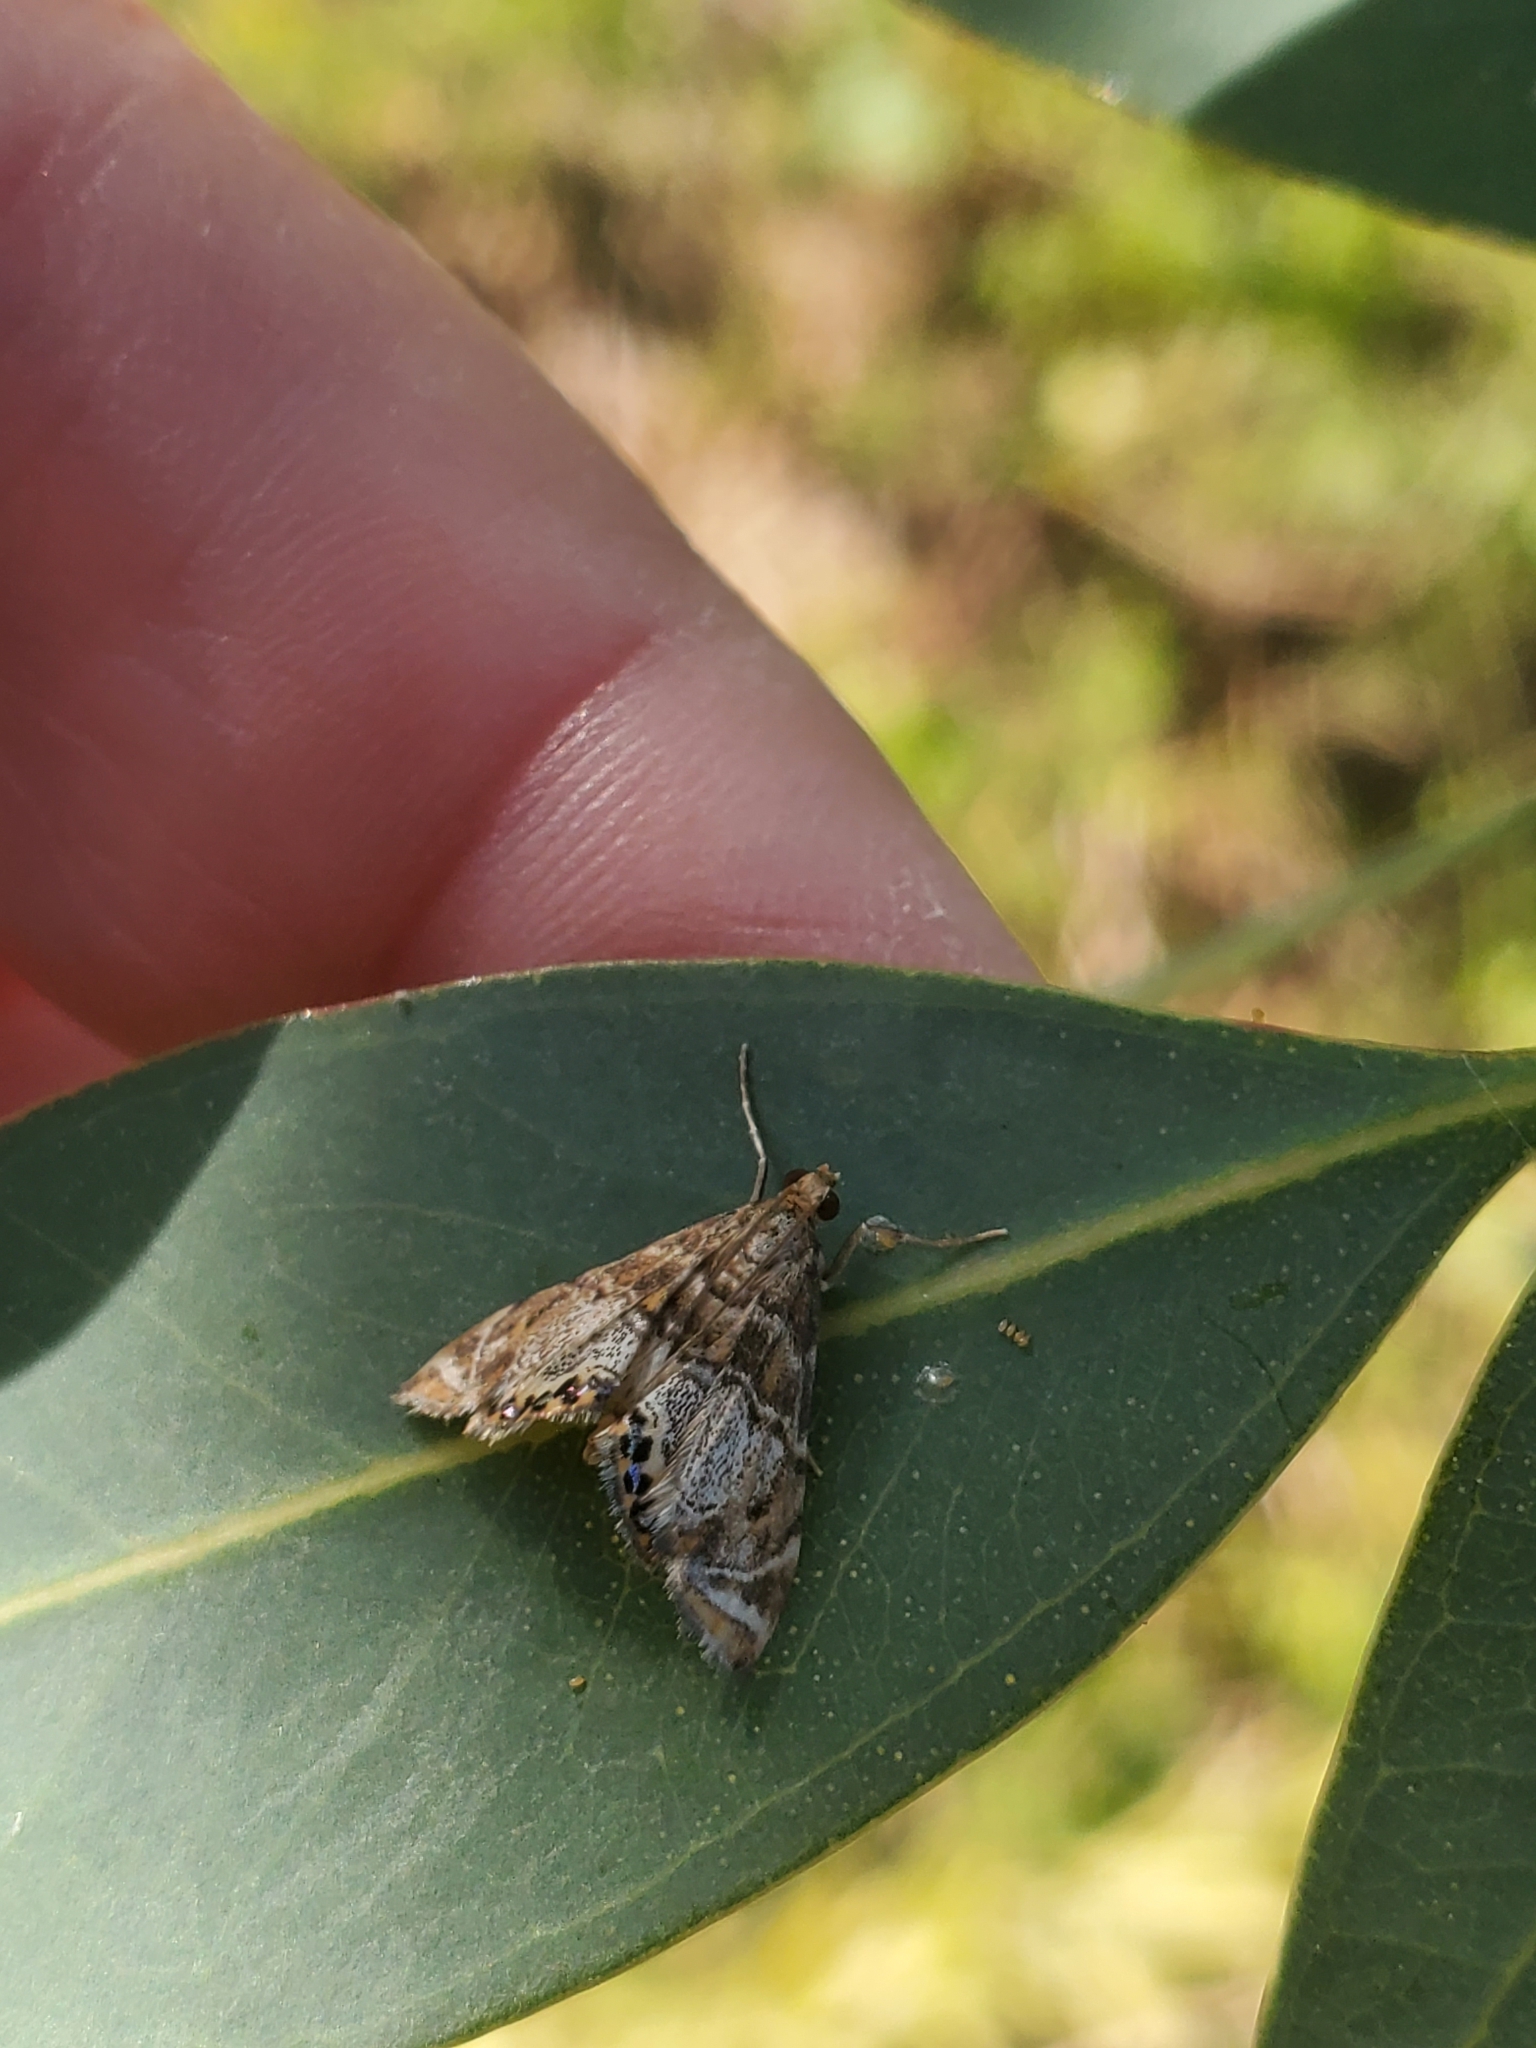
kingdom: Animalia
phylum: Arthropoda
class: Insecta
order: Lepidoptera
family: Crambidae
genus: Petrophila
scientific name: Petrophila confusalis
